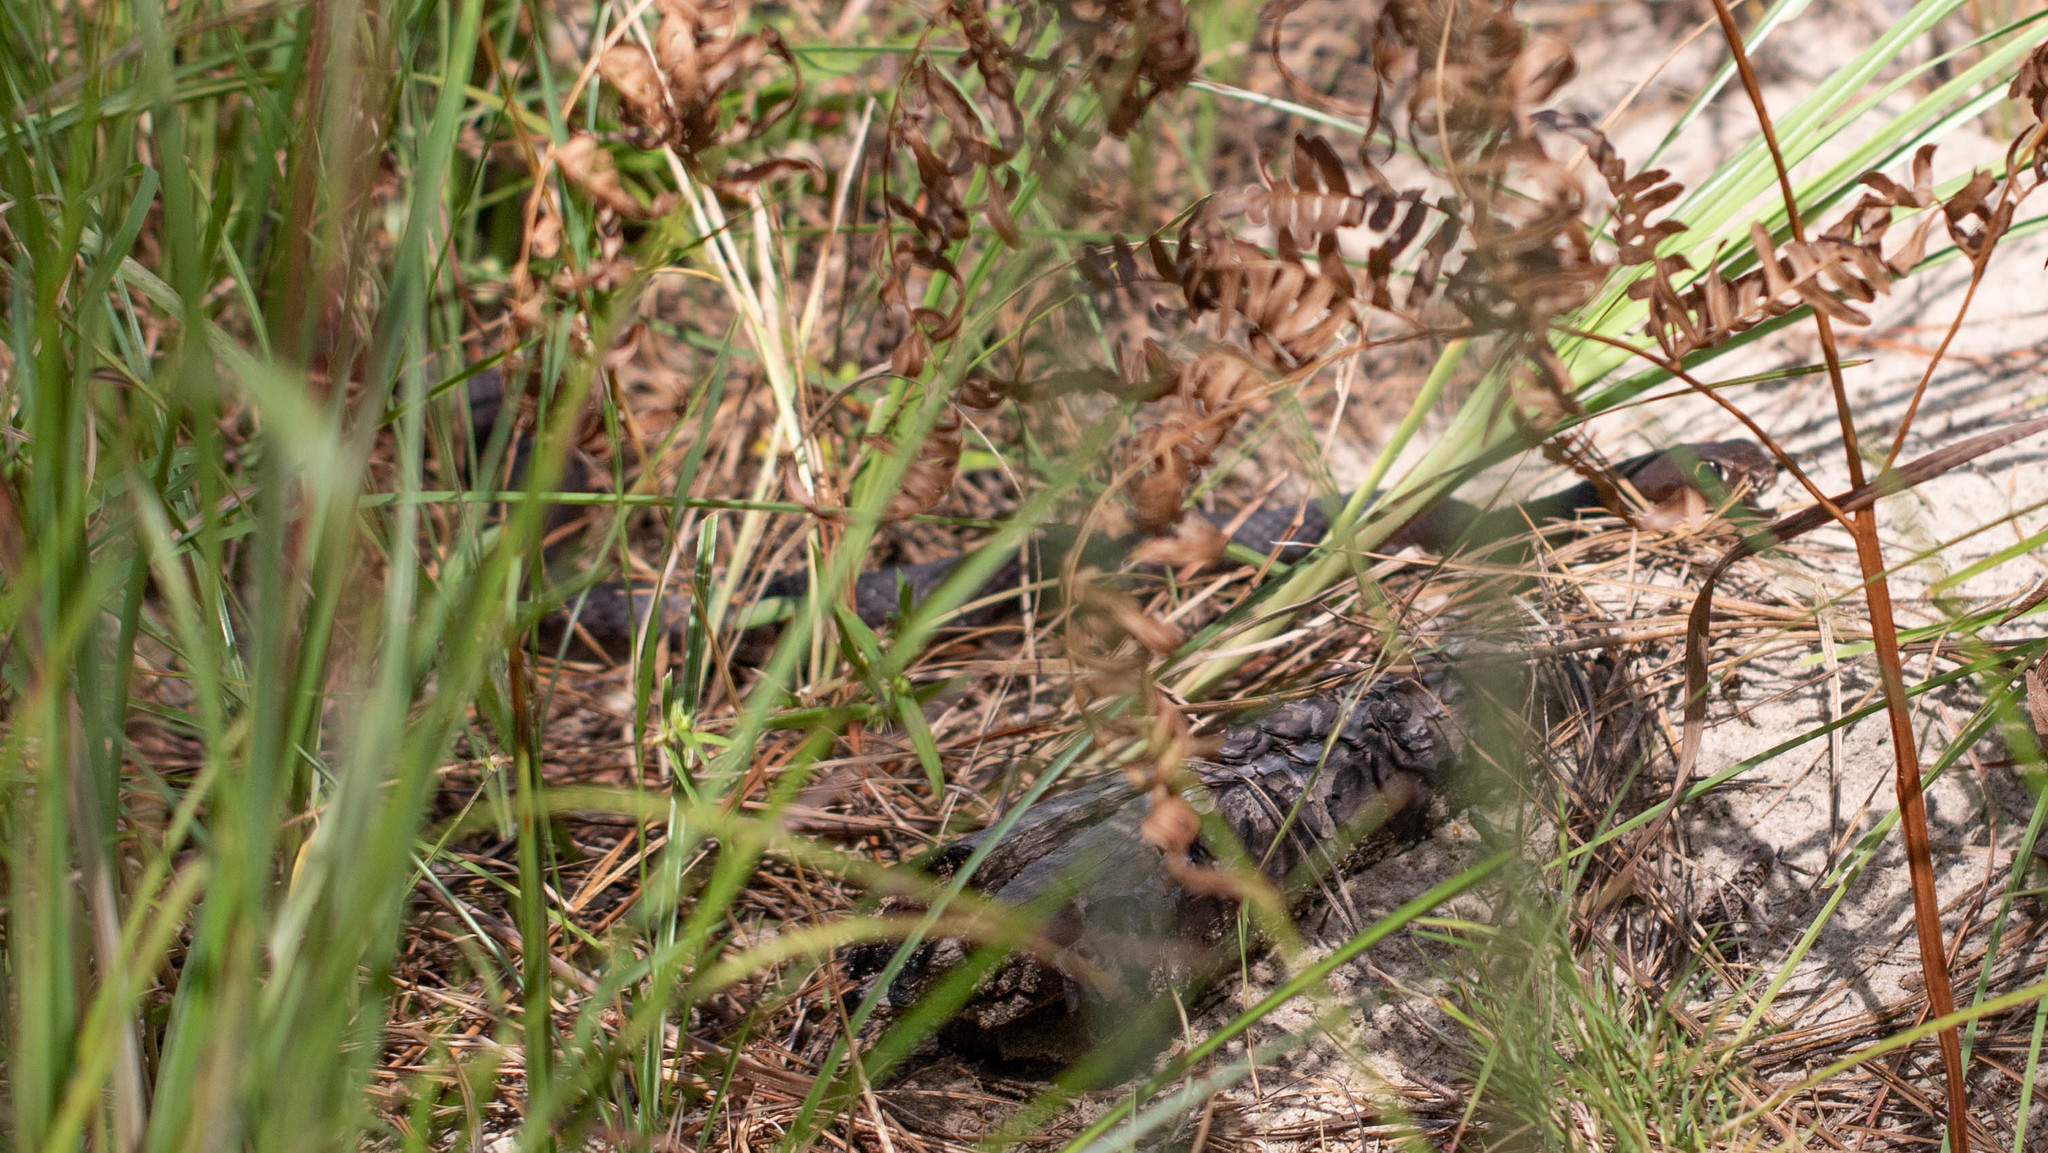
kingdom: Animalia
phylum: Chordata
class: Squamata
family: Colubridae
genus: Masticophis
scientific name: Masticophis flagellum
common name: Coachwhip
